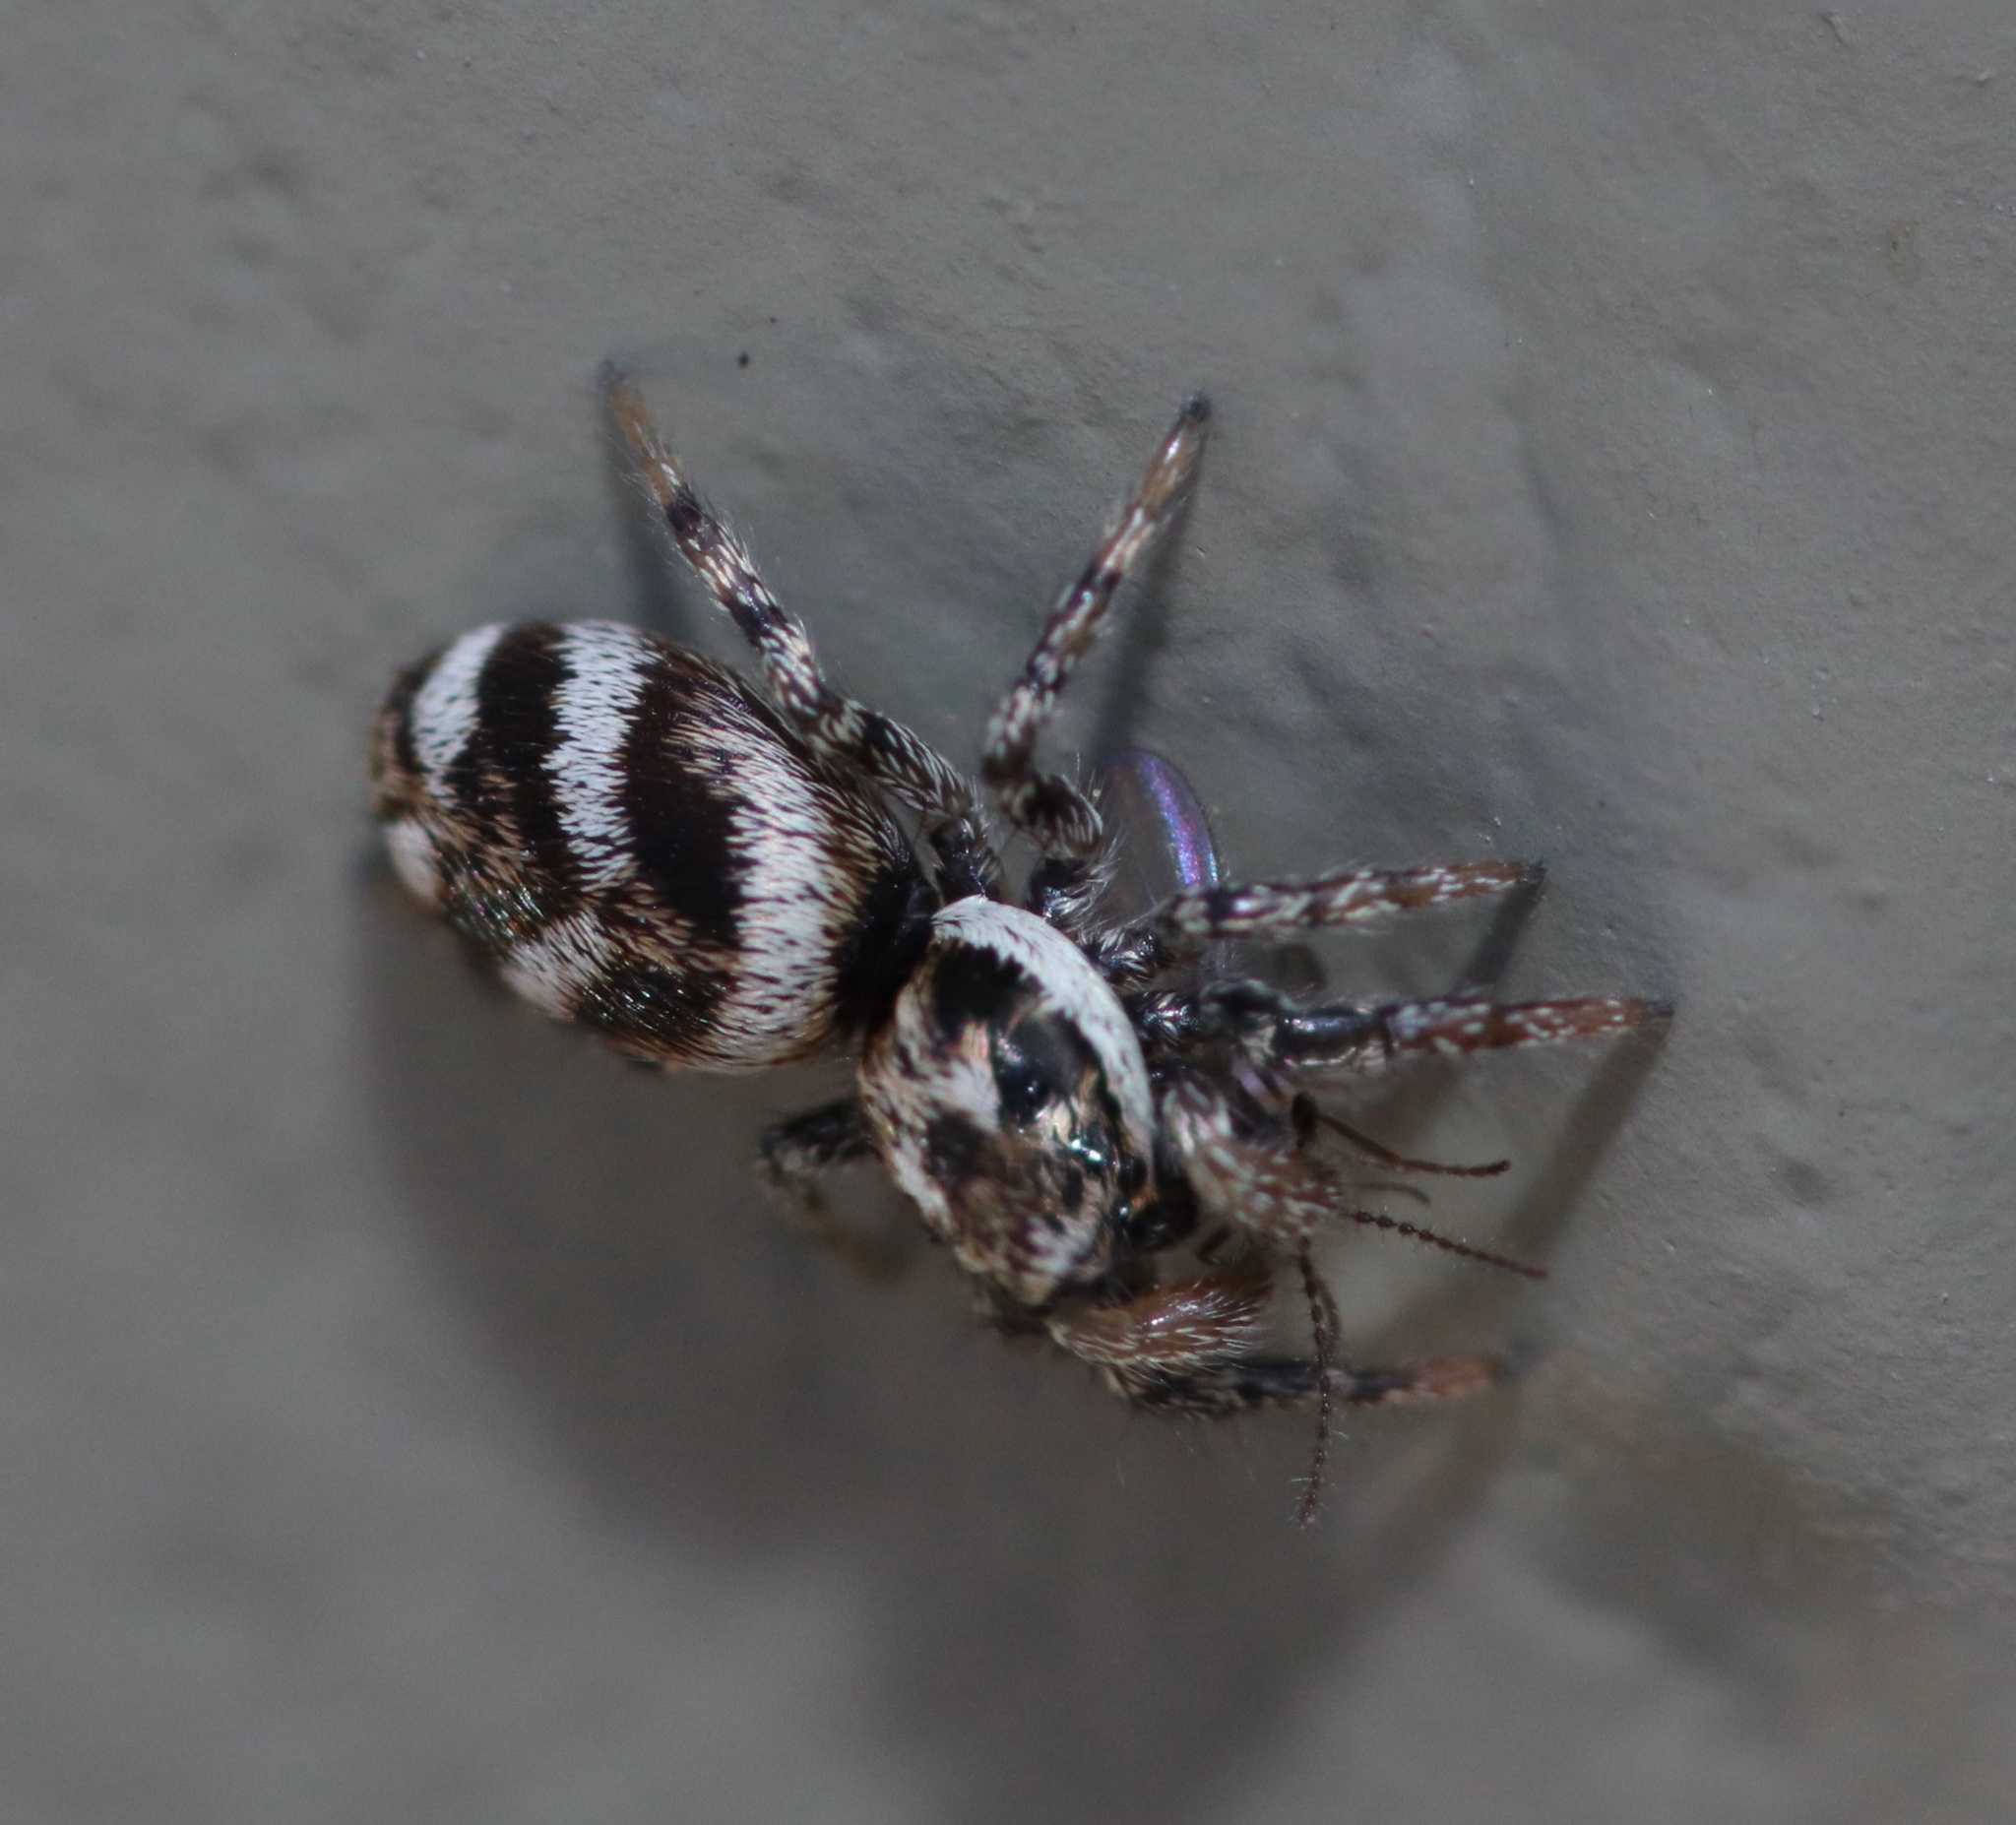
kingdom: Animalia
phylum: Arthropoda
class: Arachnida
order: Araneae
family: Salticidae
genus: Salticus
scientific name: Salticus scenicus
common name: Zebra jumper
